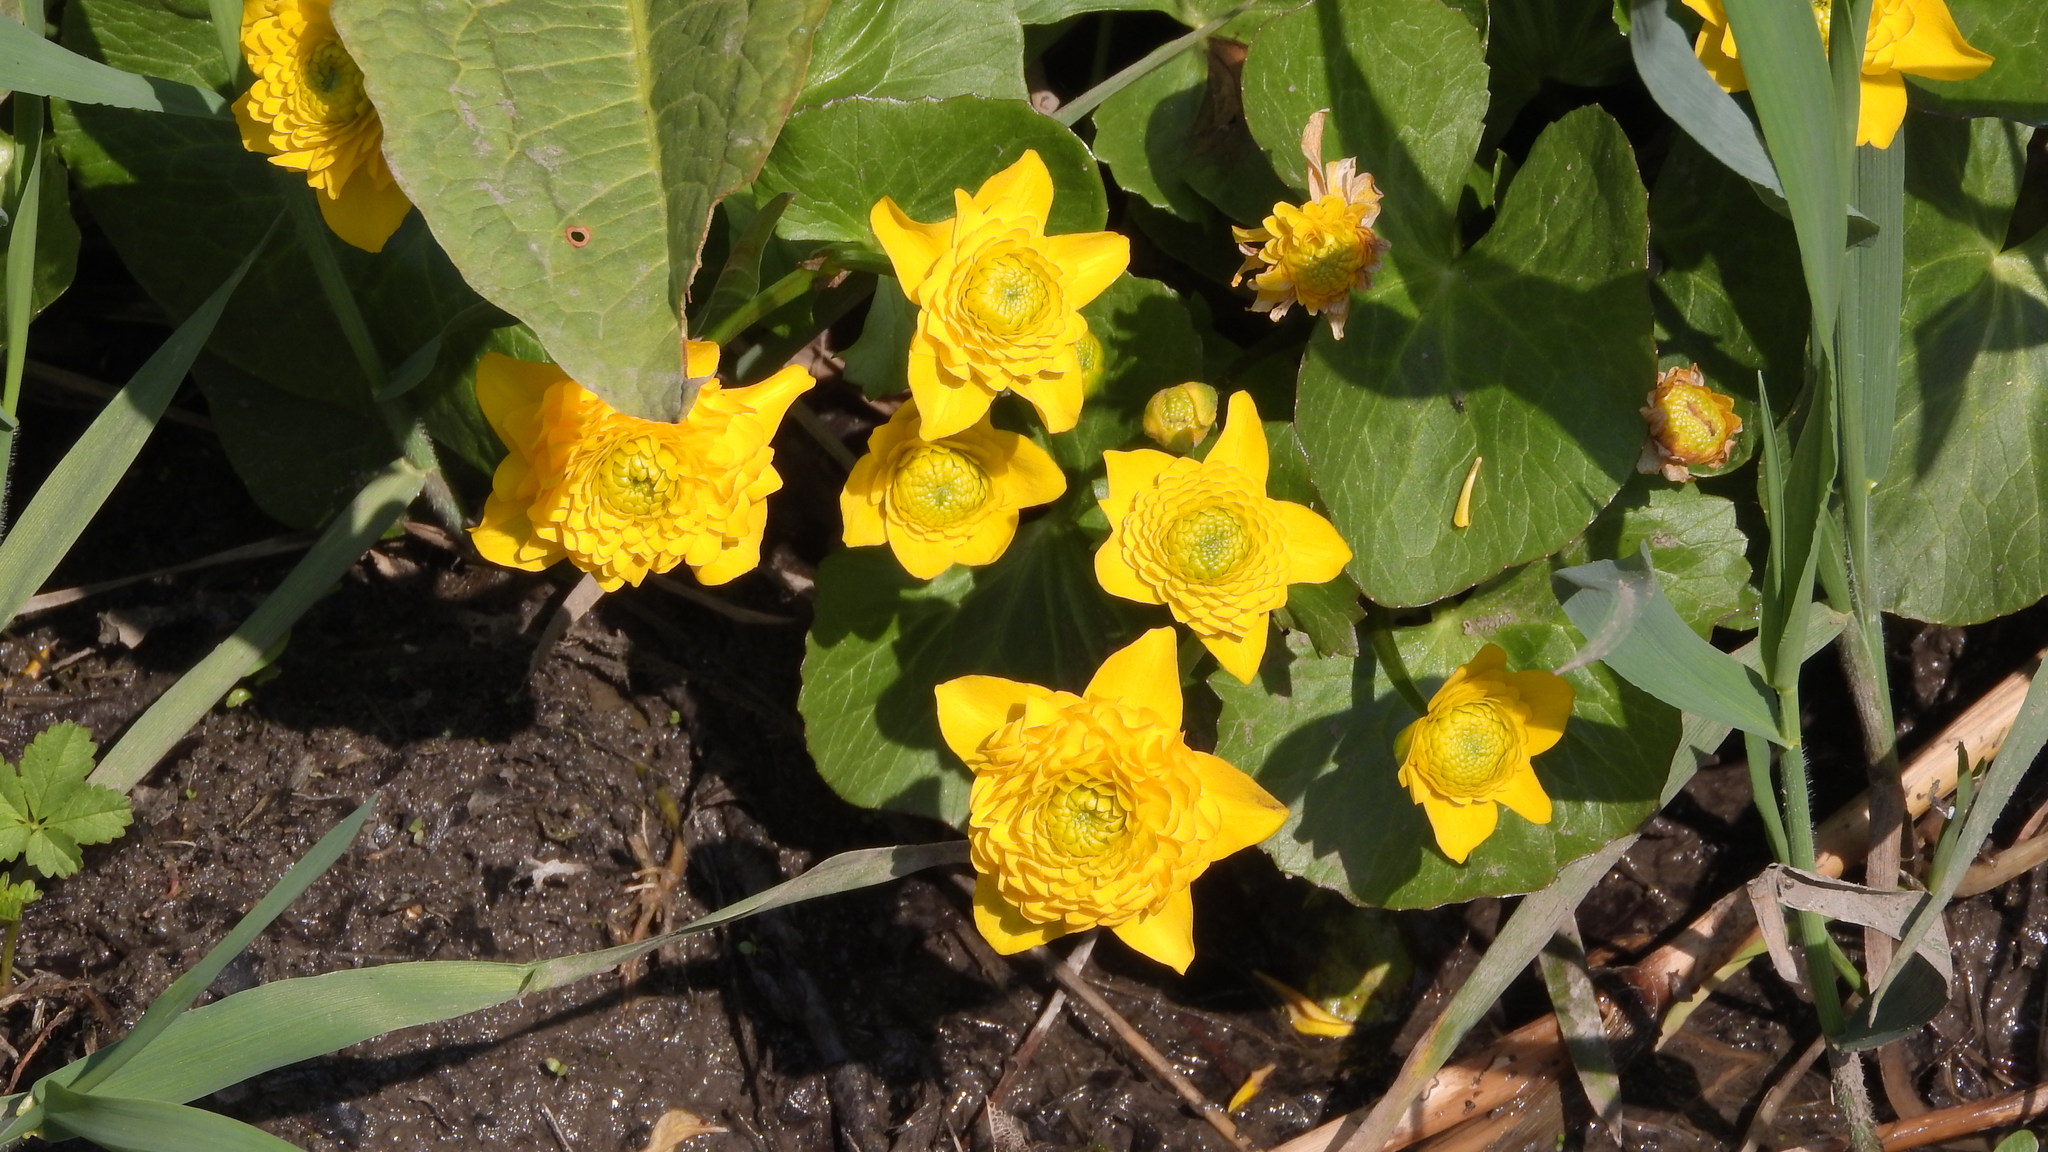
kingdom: Plantae
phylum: Tracheophyta
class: Magnoliopsida
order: Ranunculales
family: Ranunculaceae
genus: Caltha
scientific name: Caltha palustris
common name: Marsh marigold
